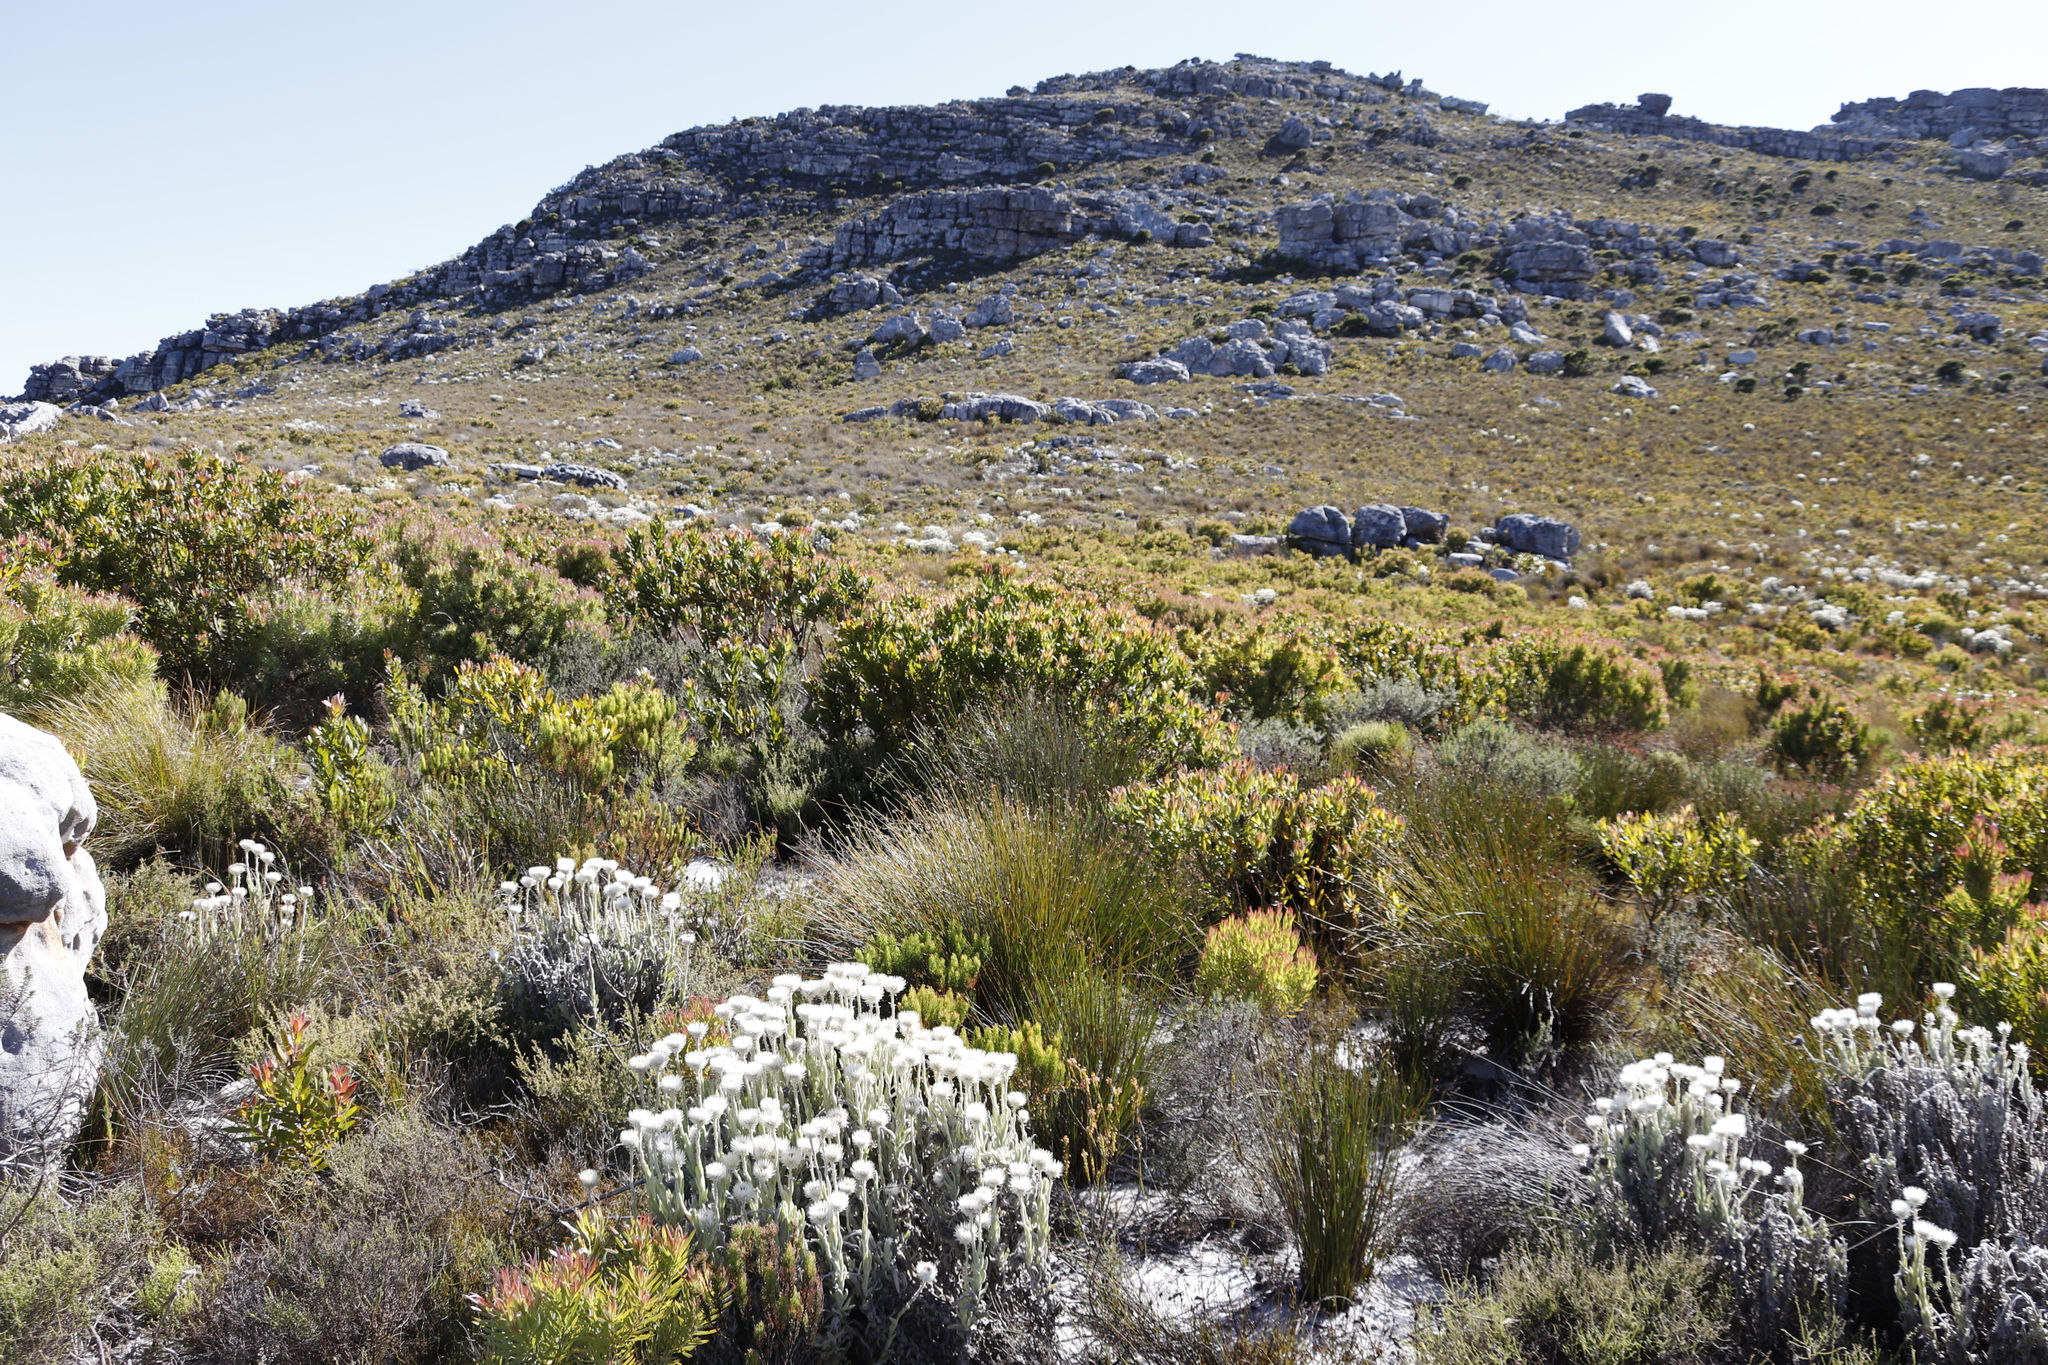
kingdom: Plantae
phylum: Tracheophyta
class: Magnoliopsida
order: Proteales
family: Proteaceae
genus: Protea
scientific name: Protea lepidocarpodendron
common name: Black-bearded protea
